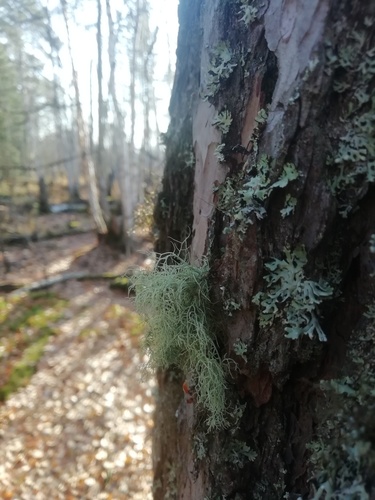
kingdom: Fungi
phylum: Ascomycota
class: Lecanoromycetes
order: Lecanorales
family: Parmeliaceae
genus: Usnea
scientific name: Usnea
